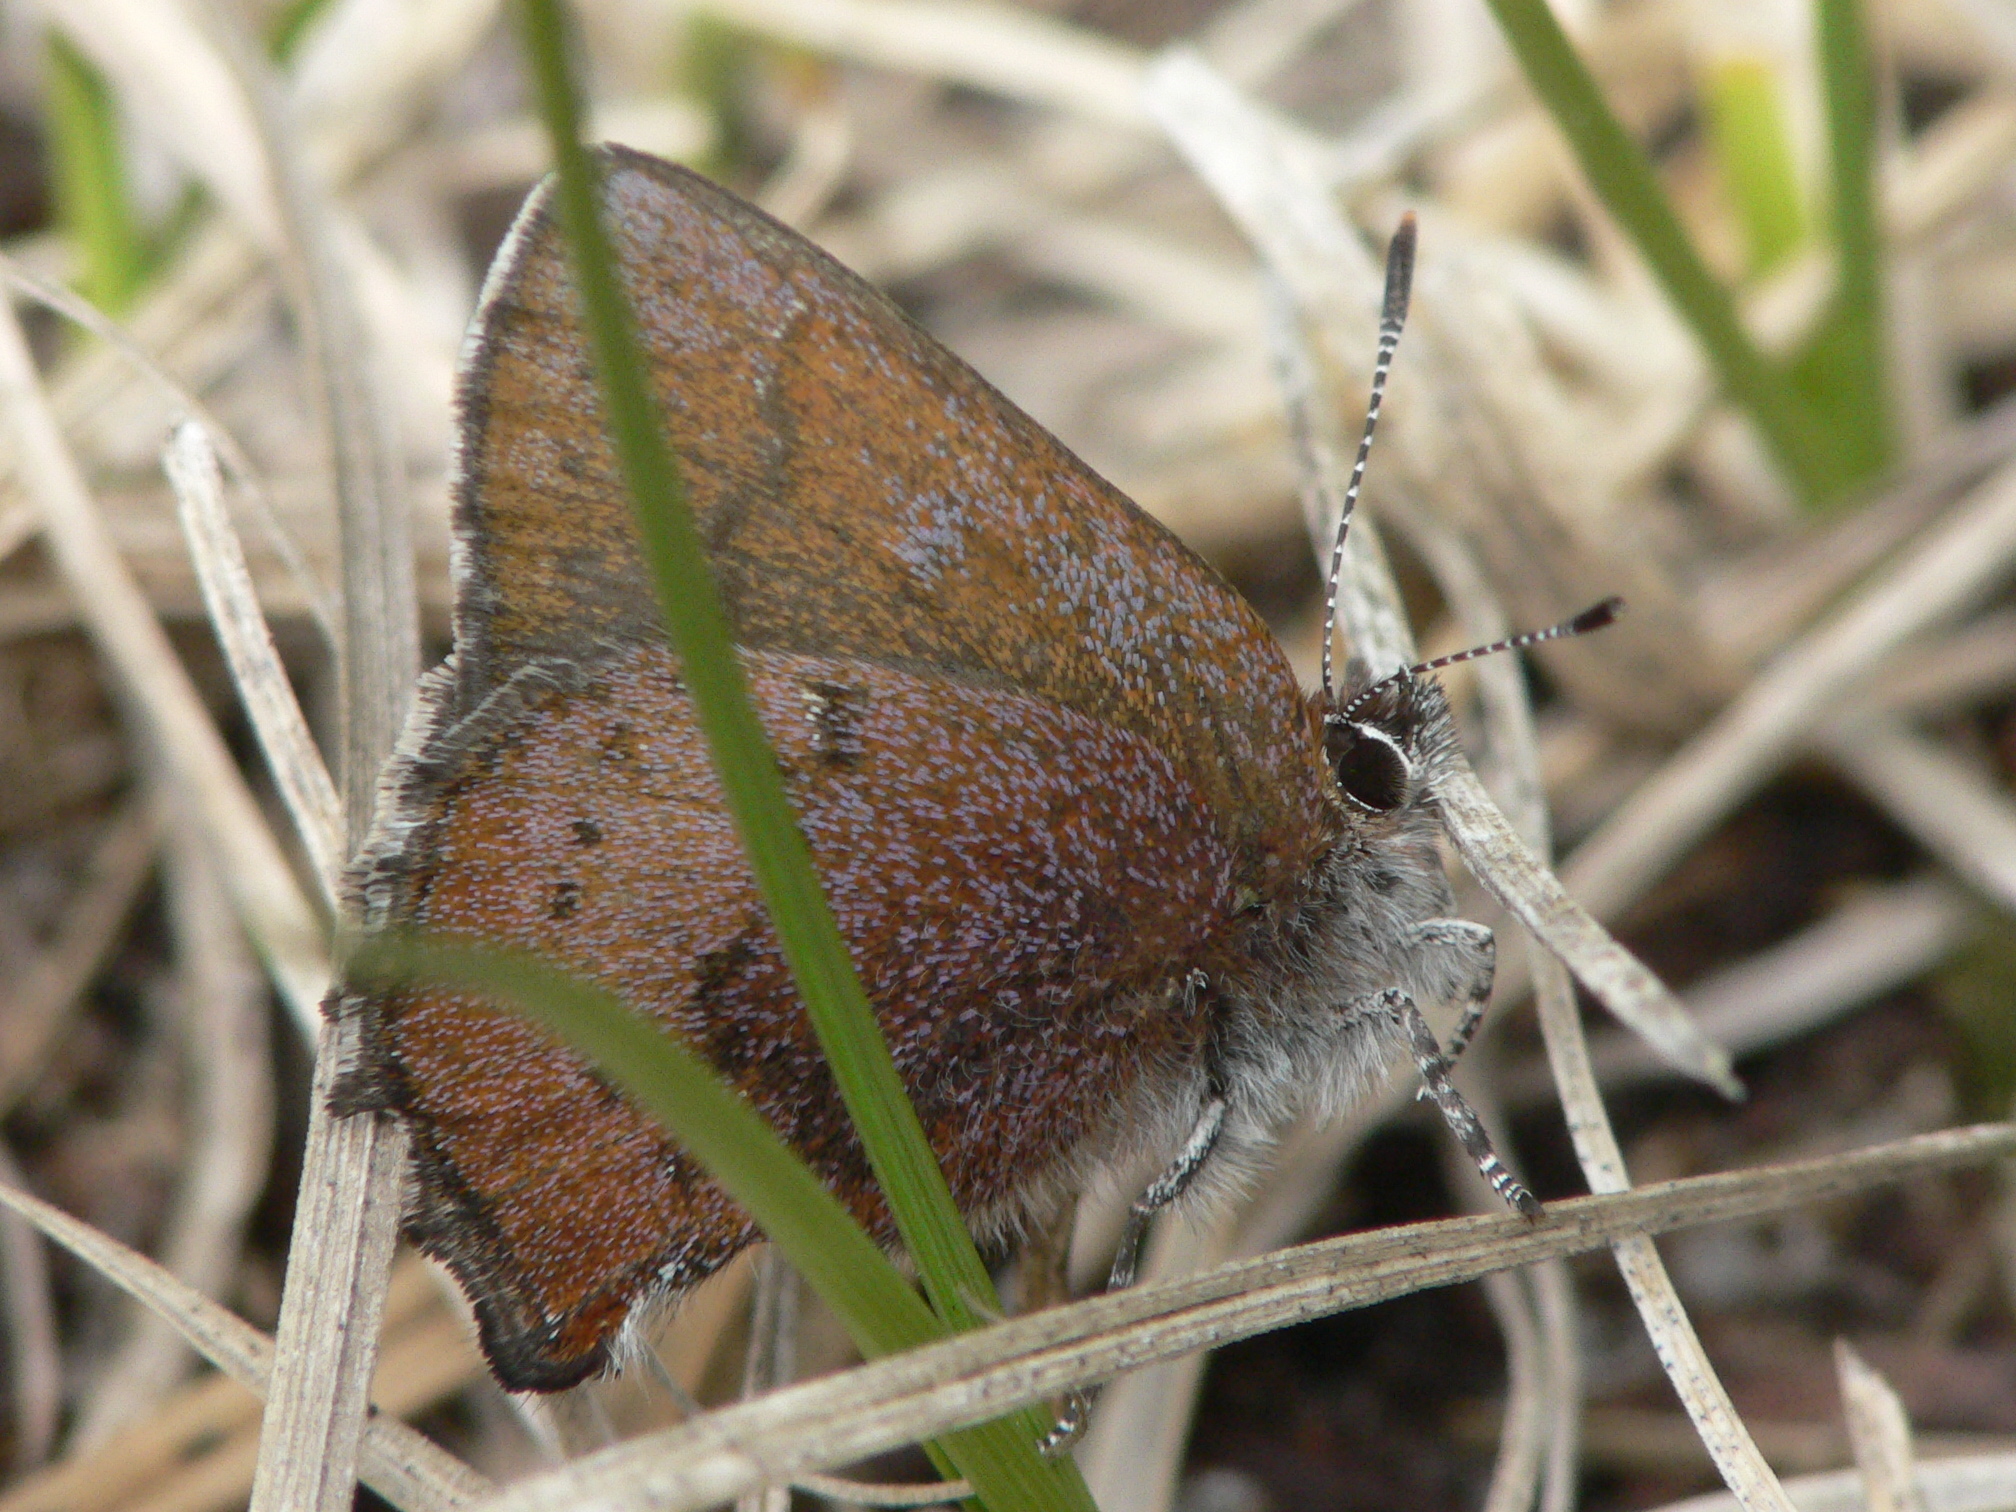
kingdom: Animalia
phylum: Arthropoda
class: Insecta
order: Lepidoptera
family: Lycaenidae
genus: Incisalia
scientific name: Incisalia irioides
